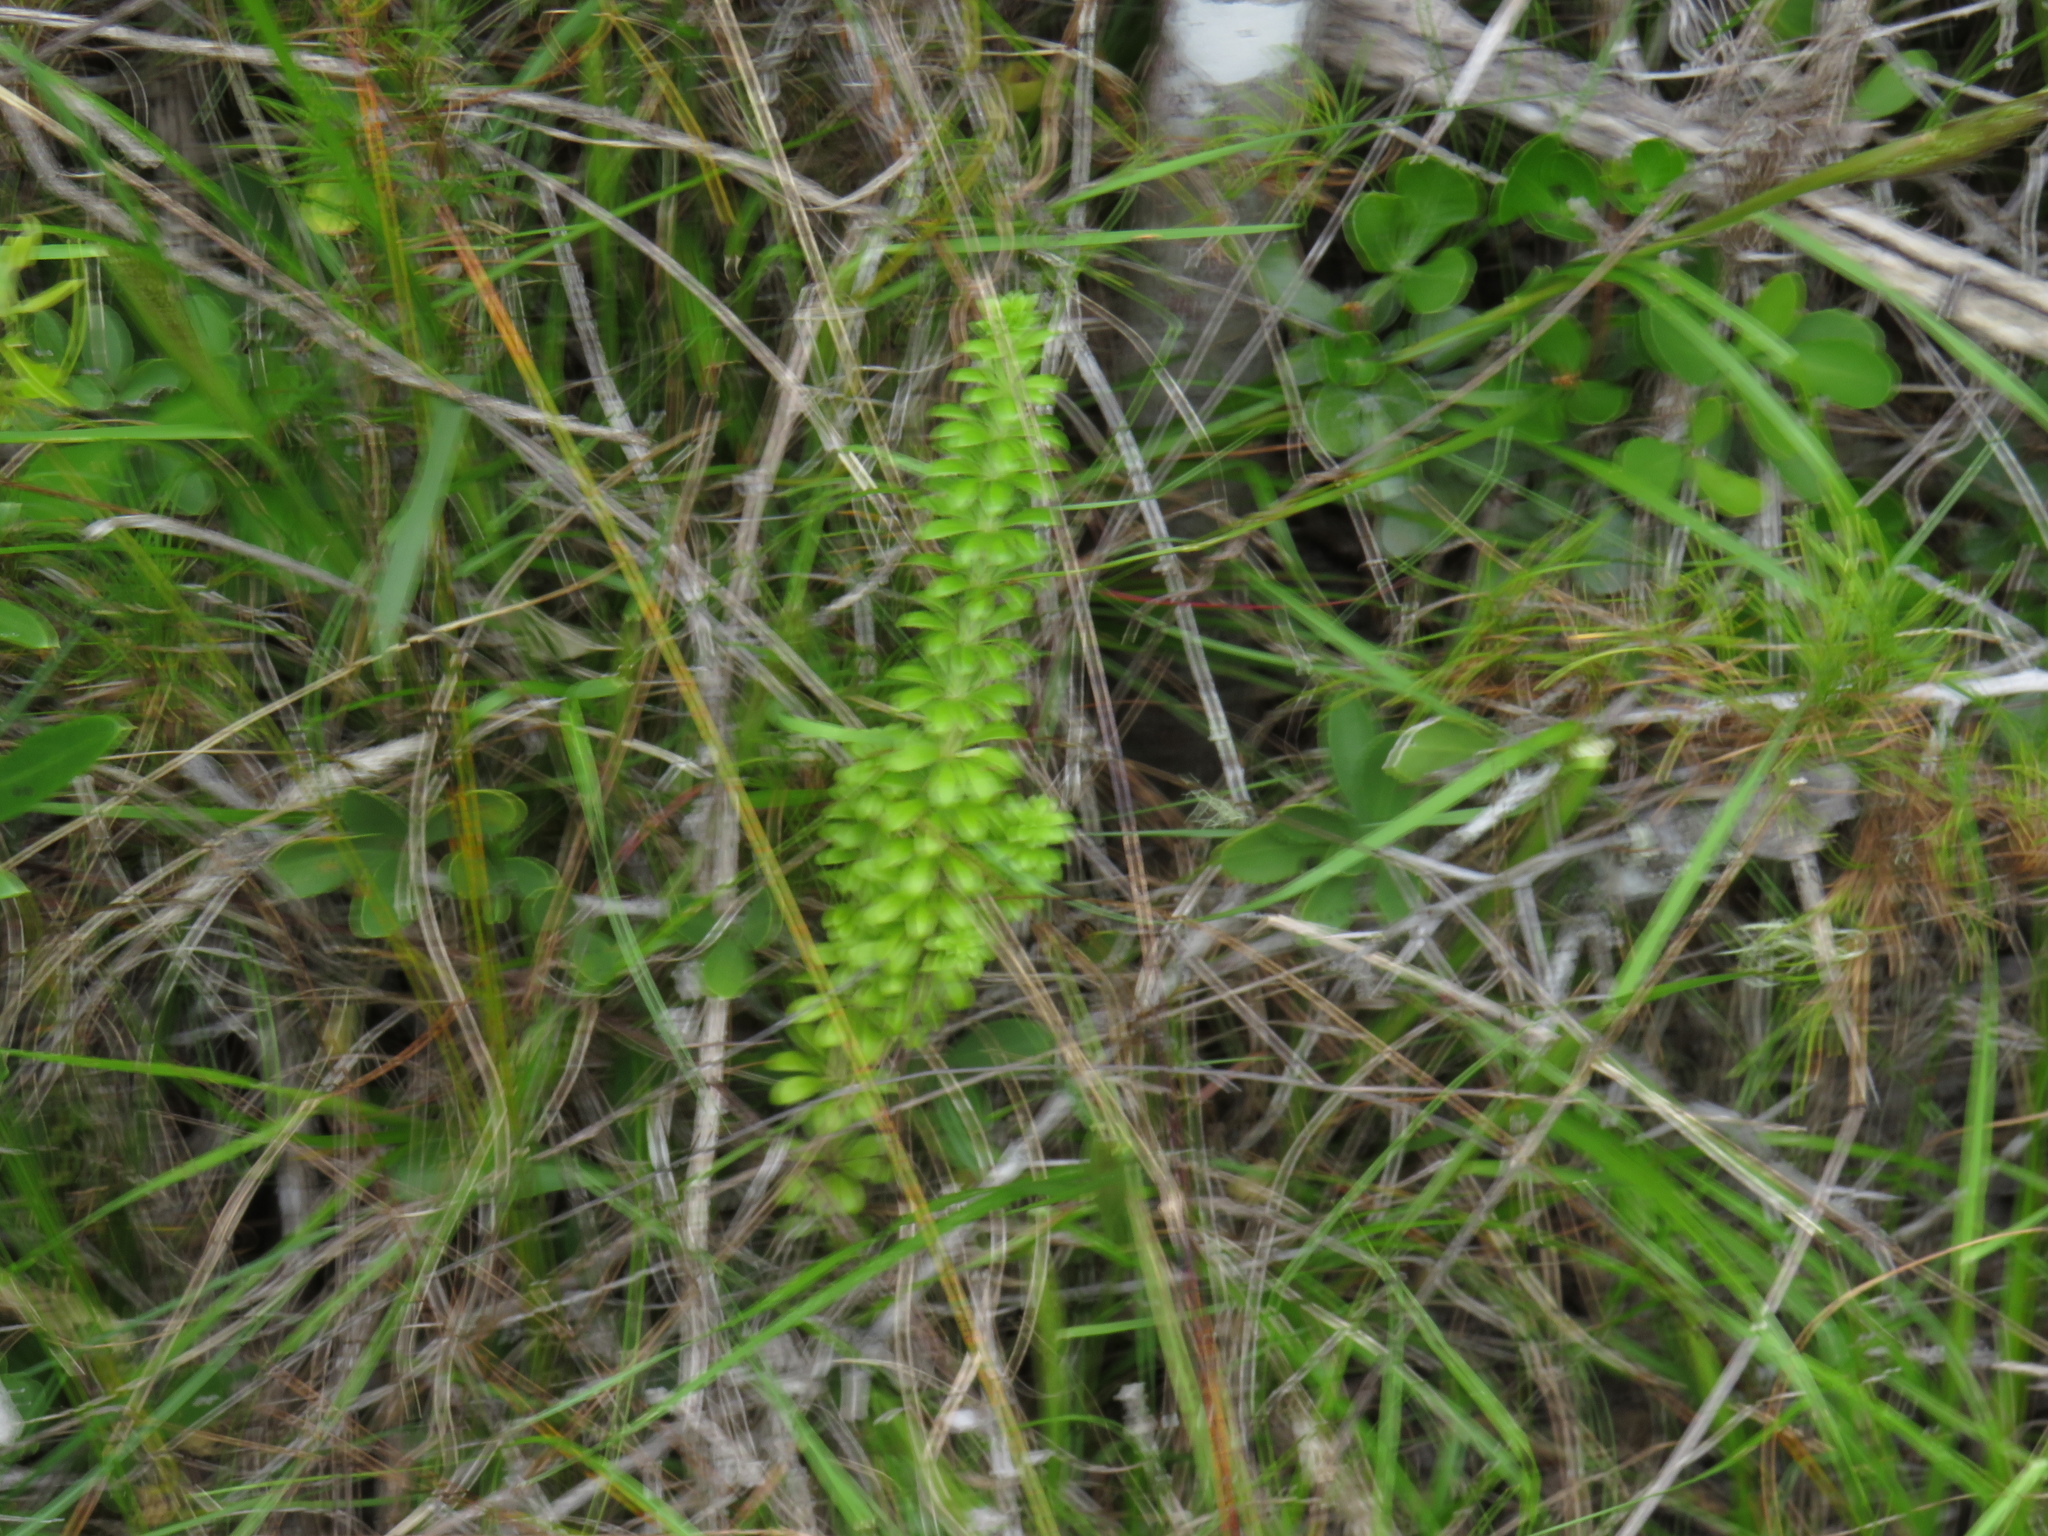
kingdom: Plantae
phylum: Tracheophyta
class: Magnoliopsida
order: Gentianales
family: Rubiaceae
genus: Galium
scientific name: Galium tomentosum
